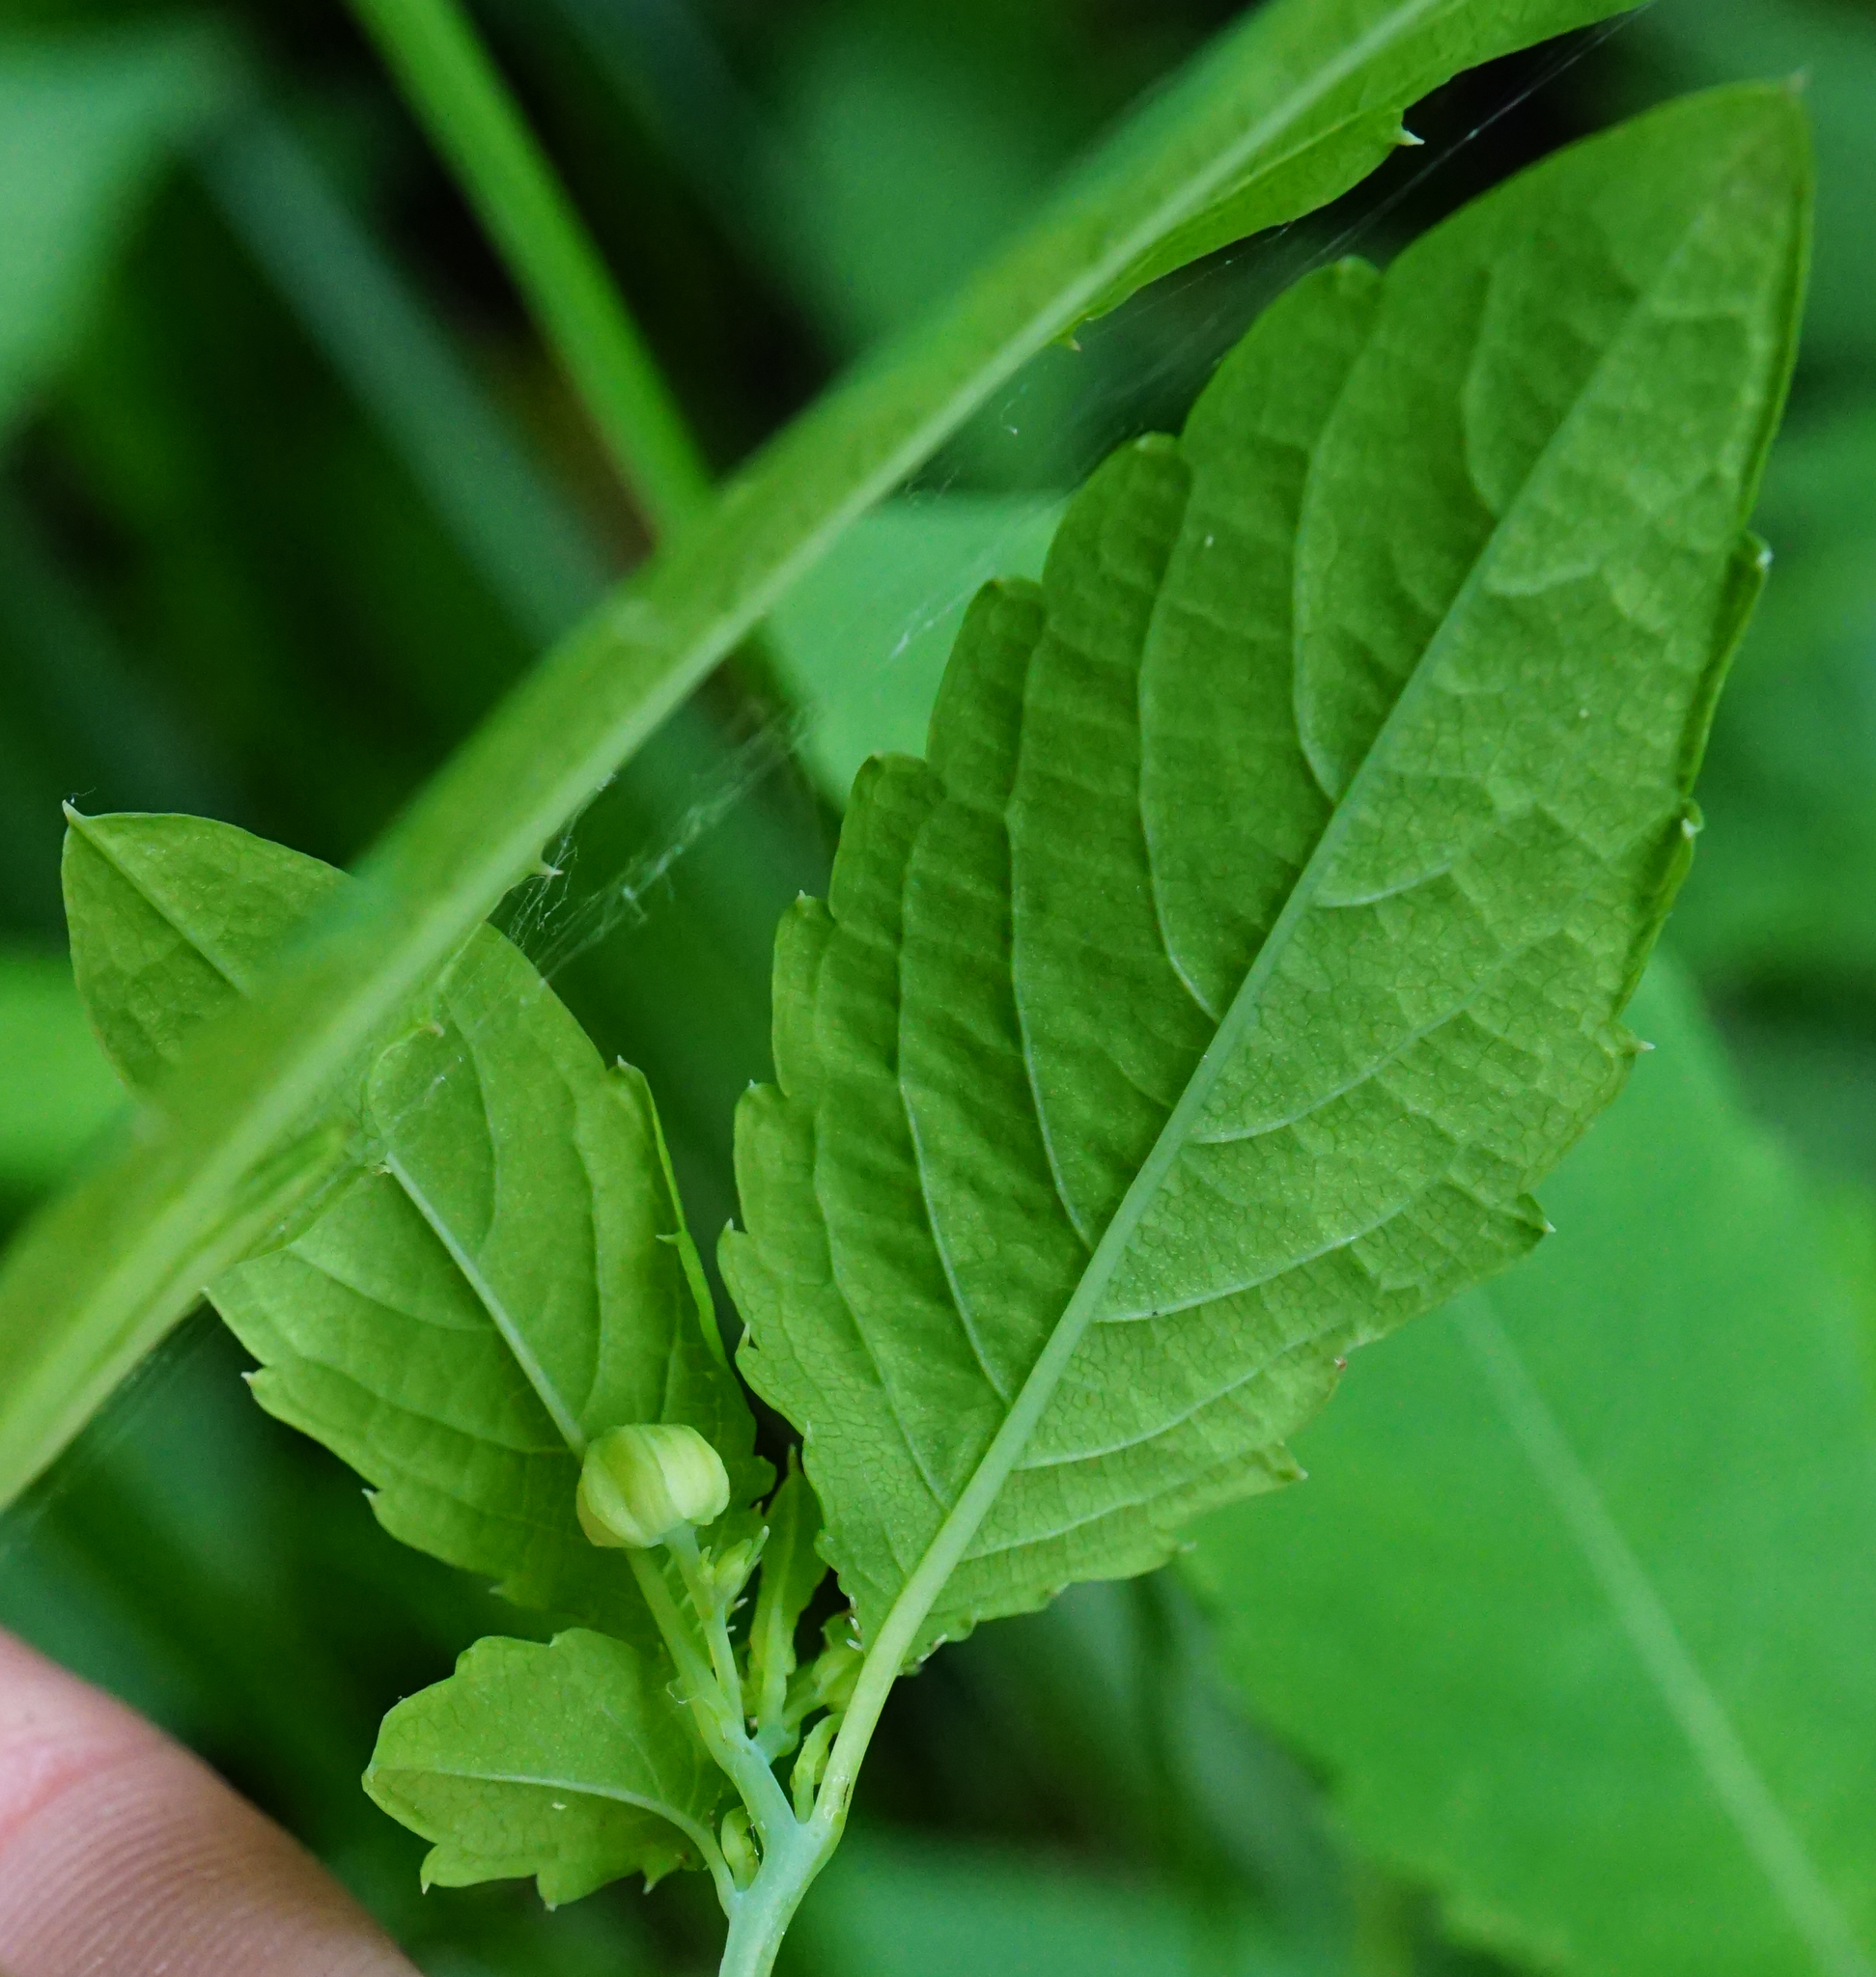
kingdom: Plantae
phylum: Tracheophyta
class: Magnoliopsida
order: Ericales
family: Balsaminaceae
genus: Impatiens
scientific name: Impatiens noli-tangere
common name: Touch-me-not balsam
